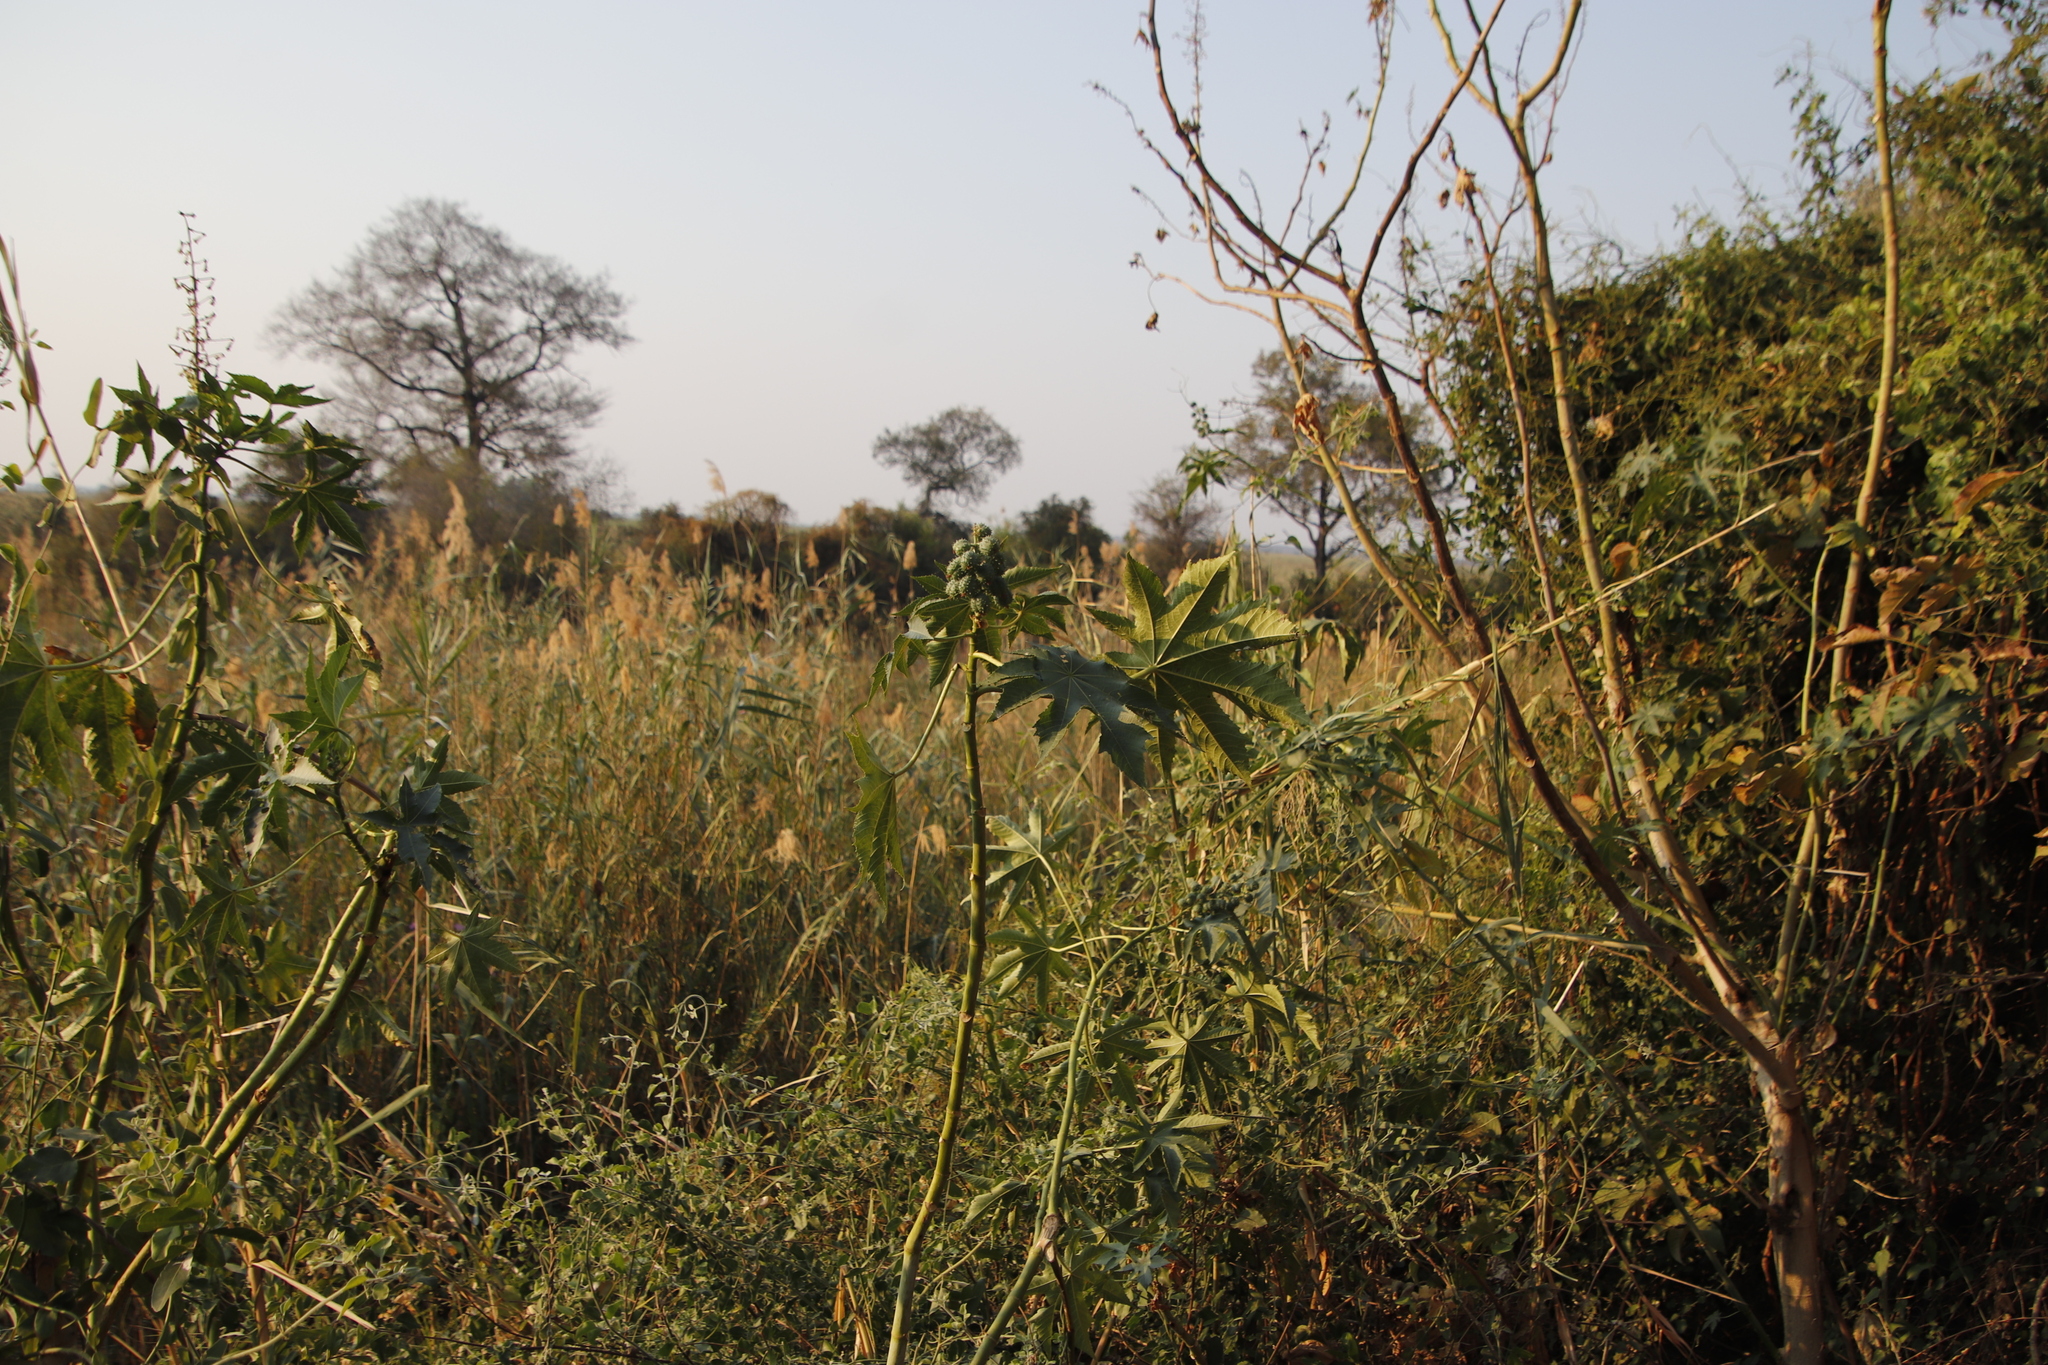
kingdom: Plantae
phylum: Tracheophyta
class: Magnoliopsida
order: Malpighiales
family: Euphorbiaceae
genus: Ricinus
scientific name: Ricinus communis
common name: Castor-oil-plant
